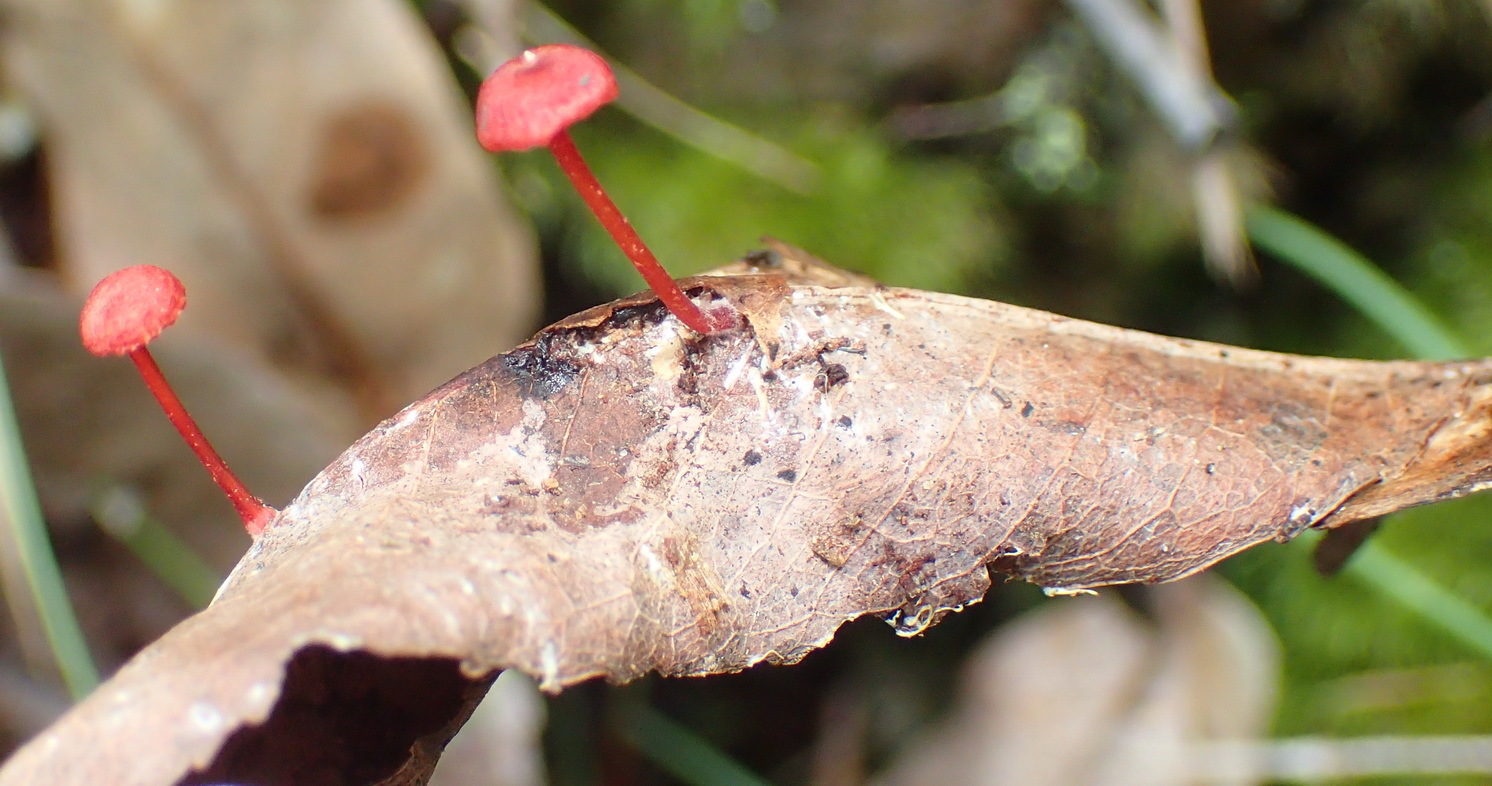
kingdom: Fungi
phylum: Basidiomycota
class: Agaricomycetes
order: Agaricales
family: Mycenaceae
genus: Cruentomycena
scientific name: Cruentomycena viscidocruenta
